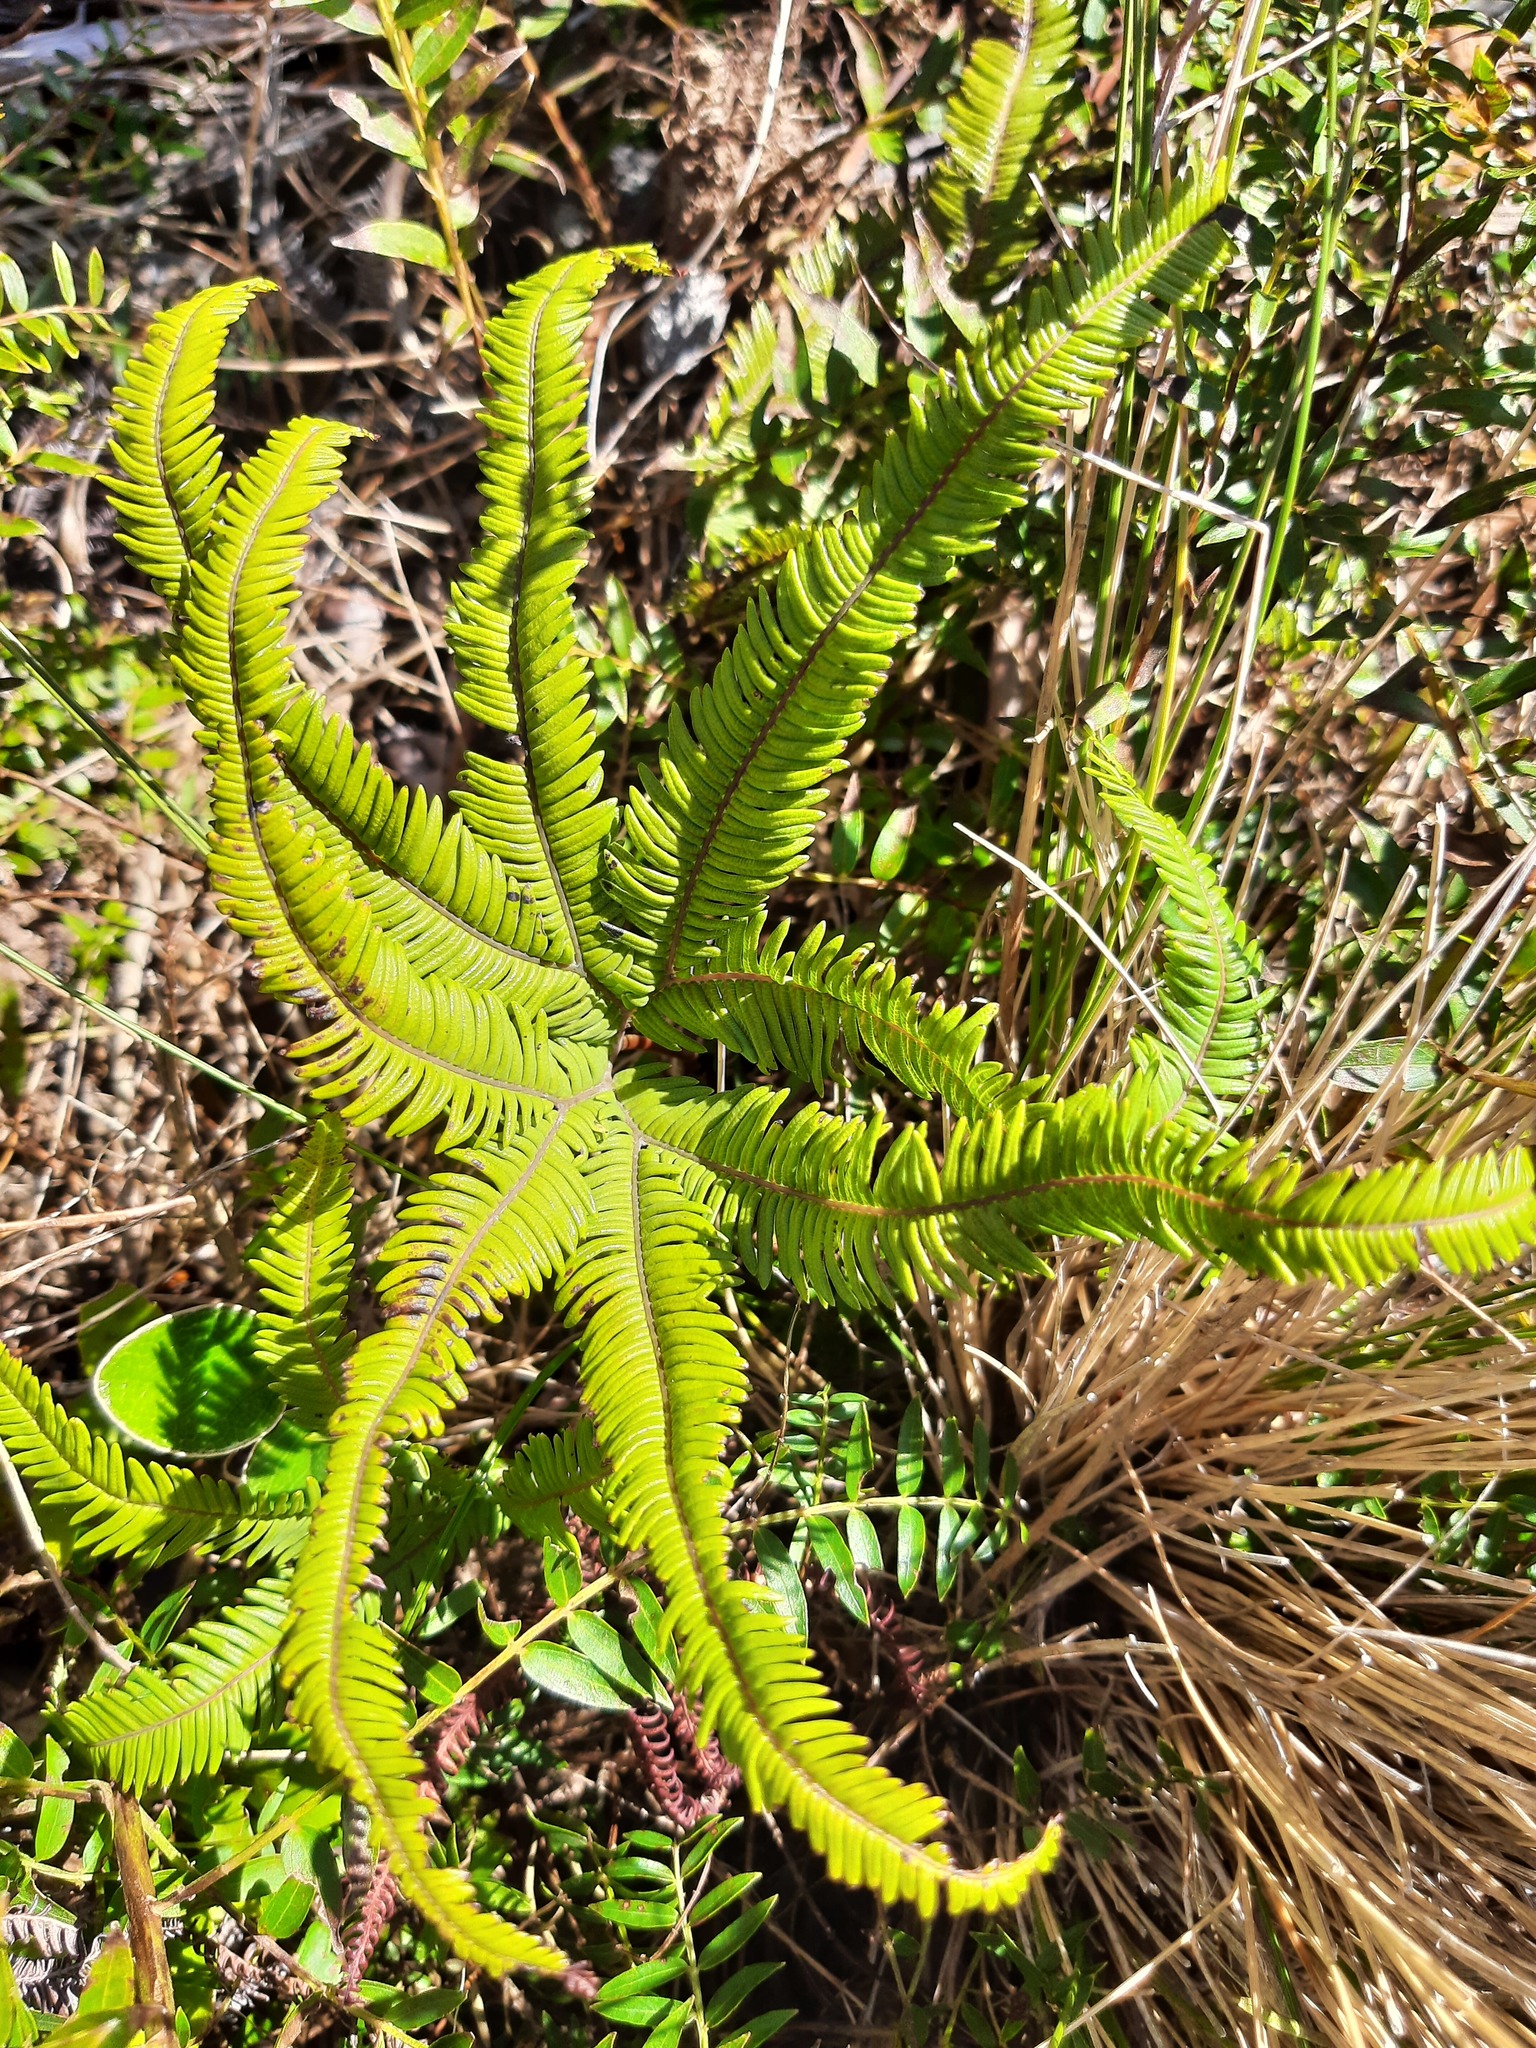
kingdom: Plantae
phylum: Tracheophyta
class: Polypodiopsida
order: Gleicheniales
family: Gleicheniaceae
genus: Sticherus
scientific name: Sticherus cunninghamii
